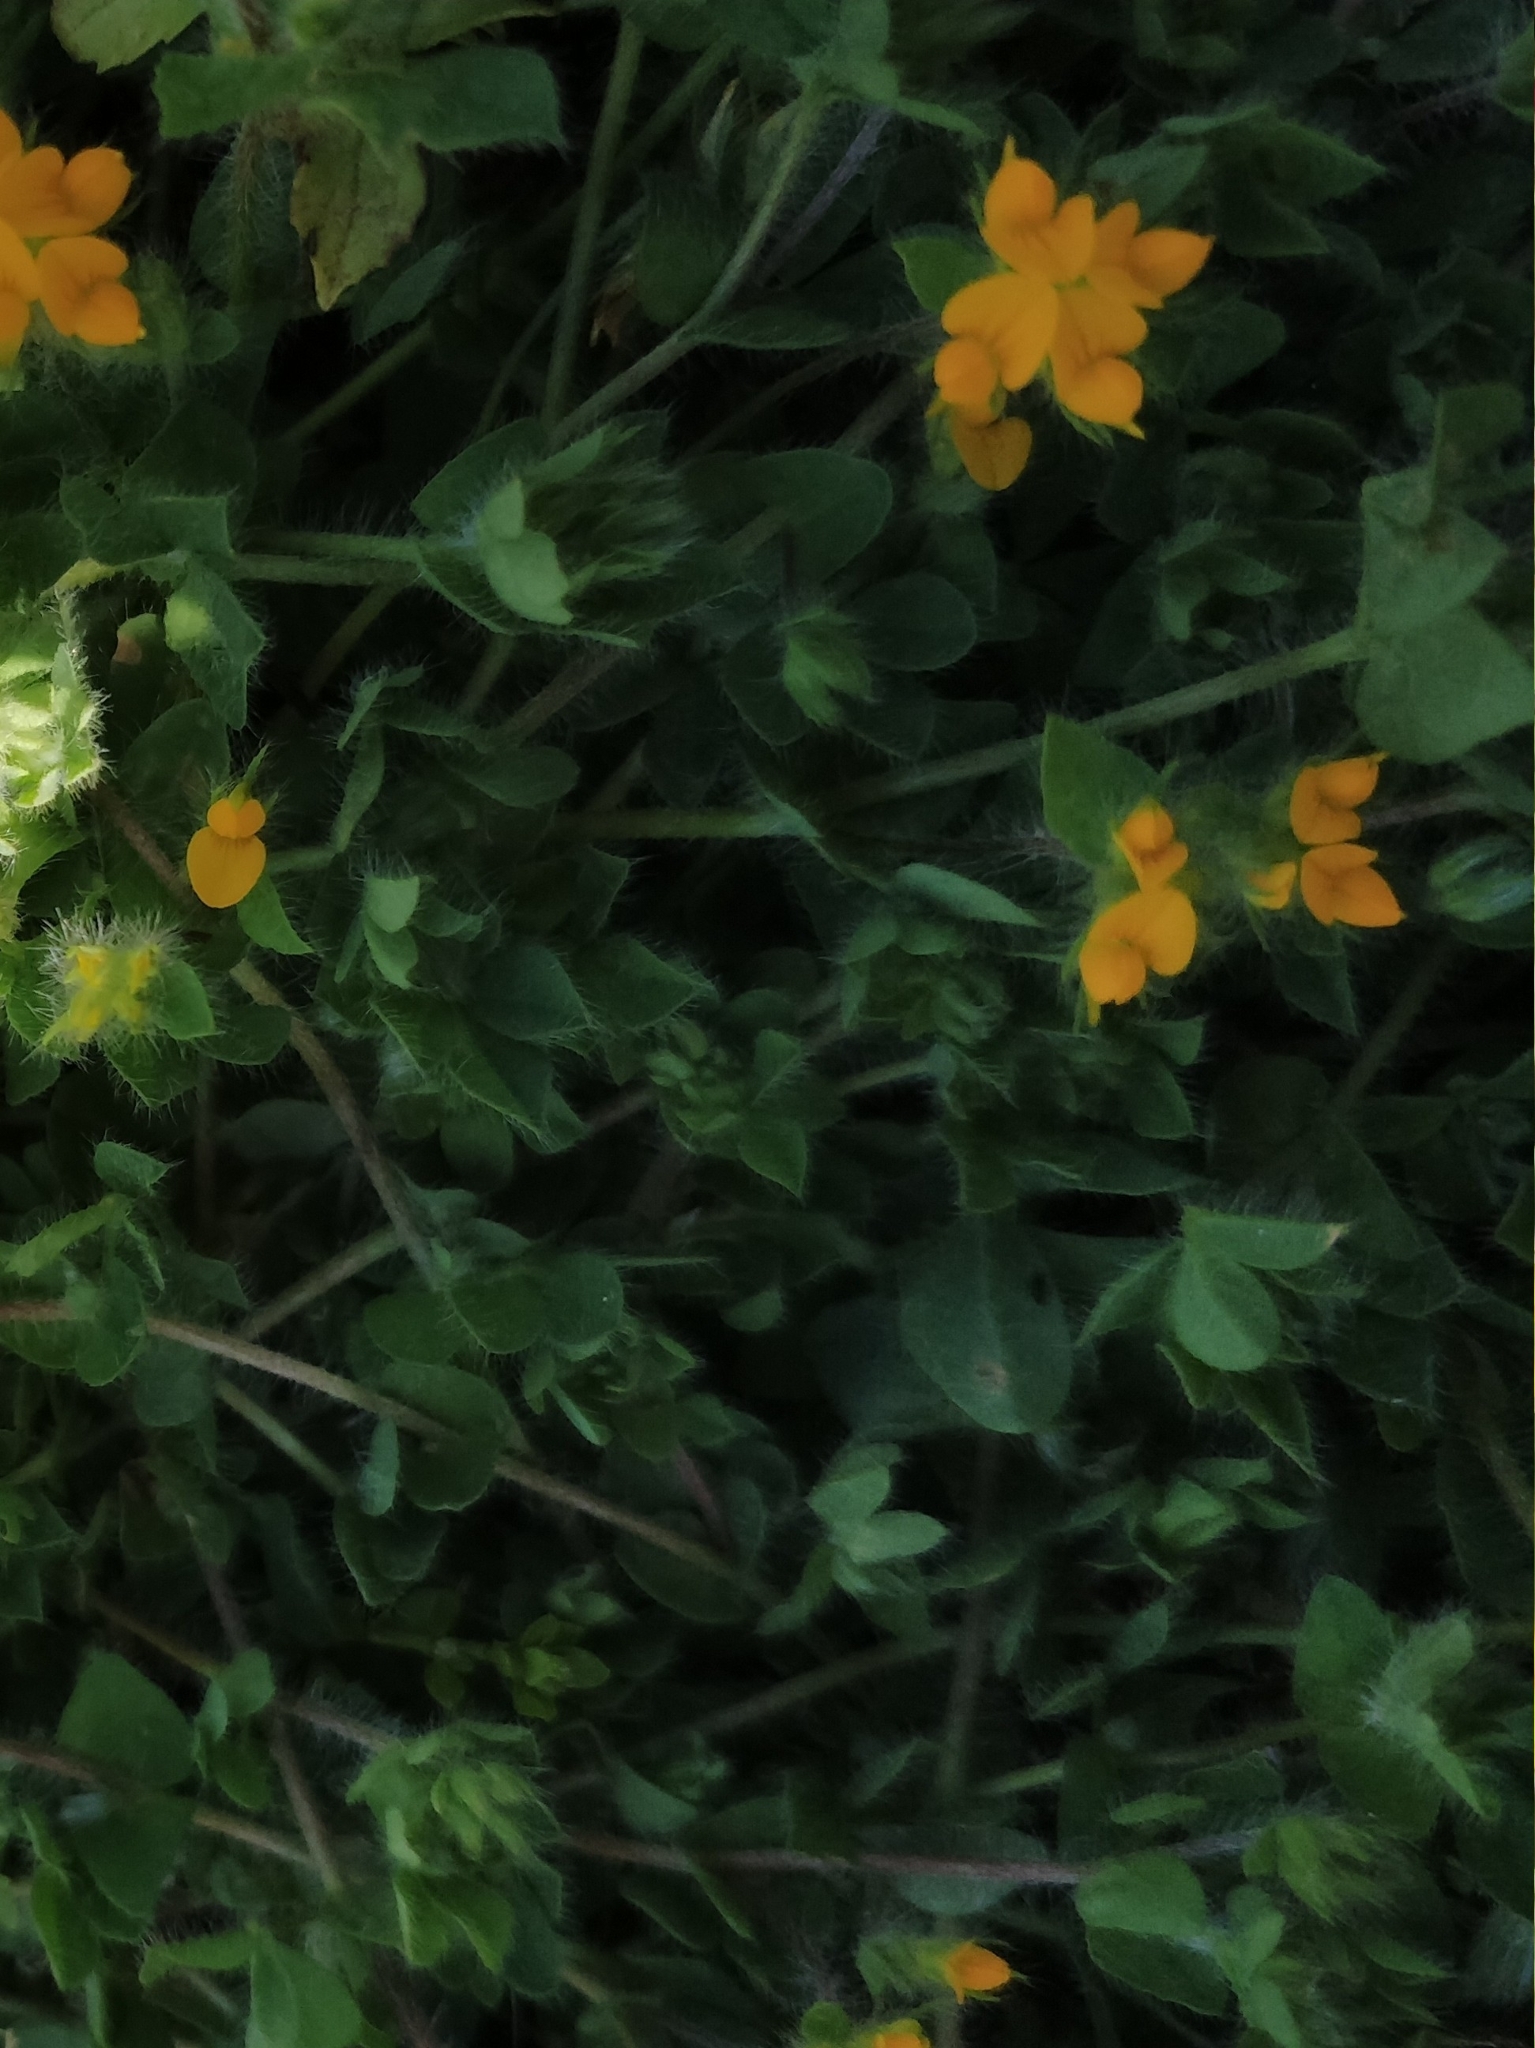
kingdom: Plantae
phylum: Tracheophyta
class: Magnoliopsida
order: Fabales
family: Fabaceae
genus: Lotus
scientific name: Lotus hispidus
